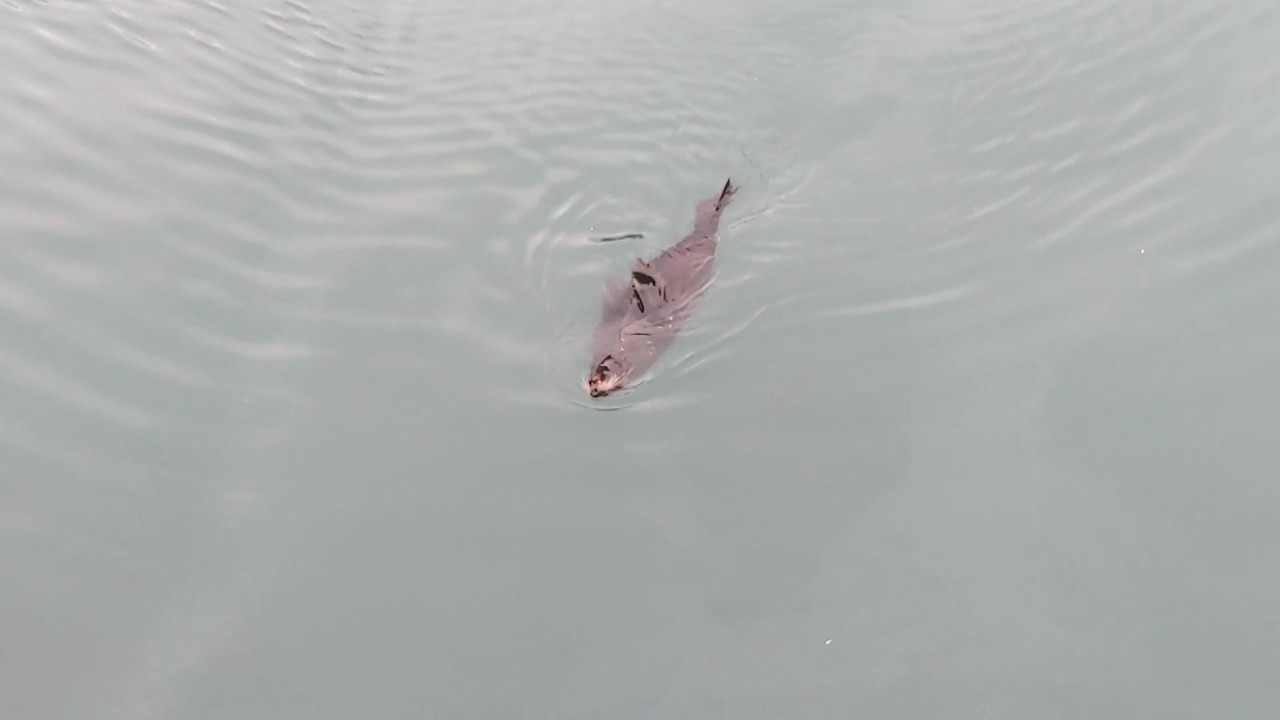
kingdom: Animalia
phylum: Chordata
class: Mammalia
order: Carnivora
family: Otariidae
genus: Arctocephalus
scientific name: Arctocephalus forsteri
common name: New zealand fur seal
